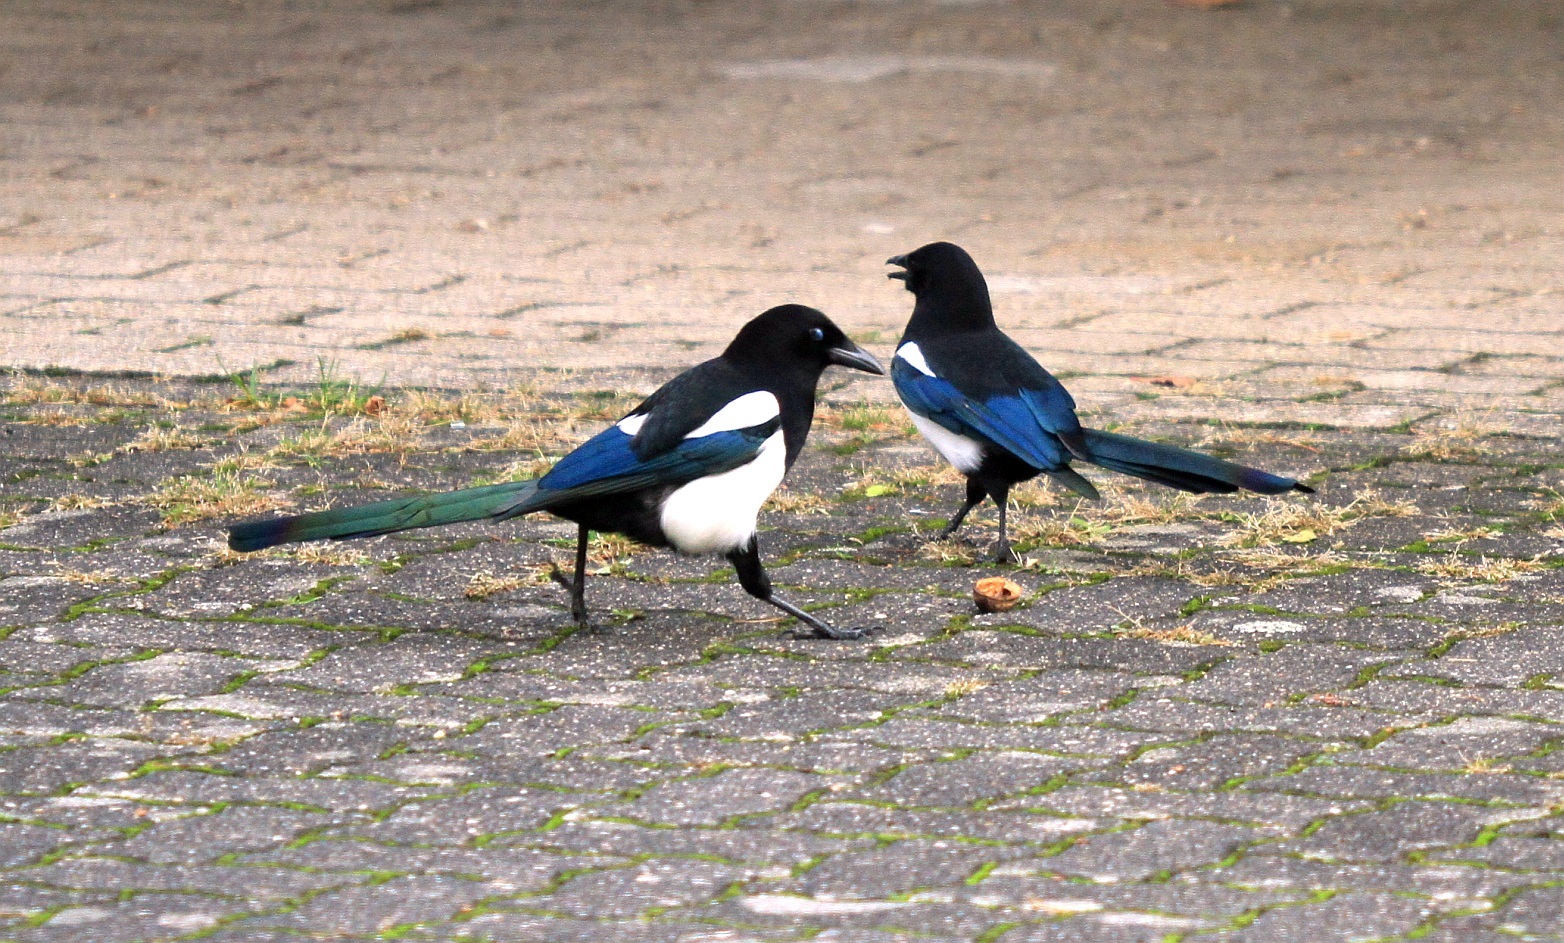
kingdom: Animalia
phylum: Chordata
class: Aves
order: Passeriformes
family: Corvidae
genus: Pica
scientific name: Pica pica
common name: Eurasian magpie
